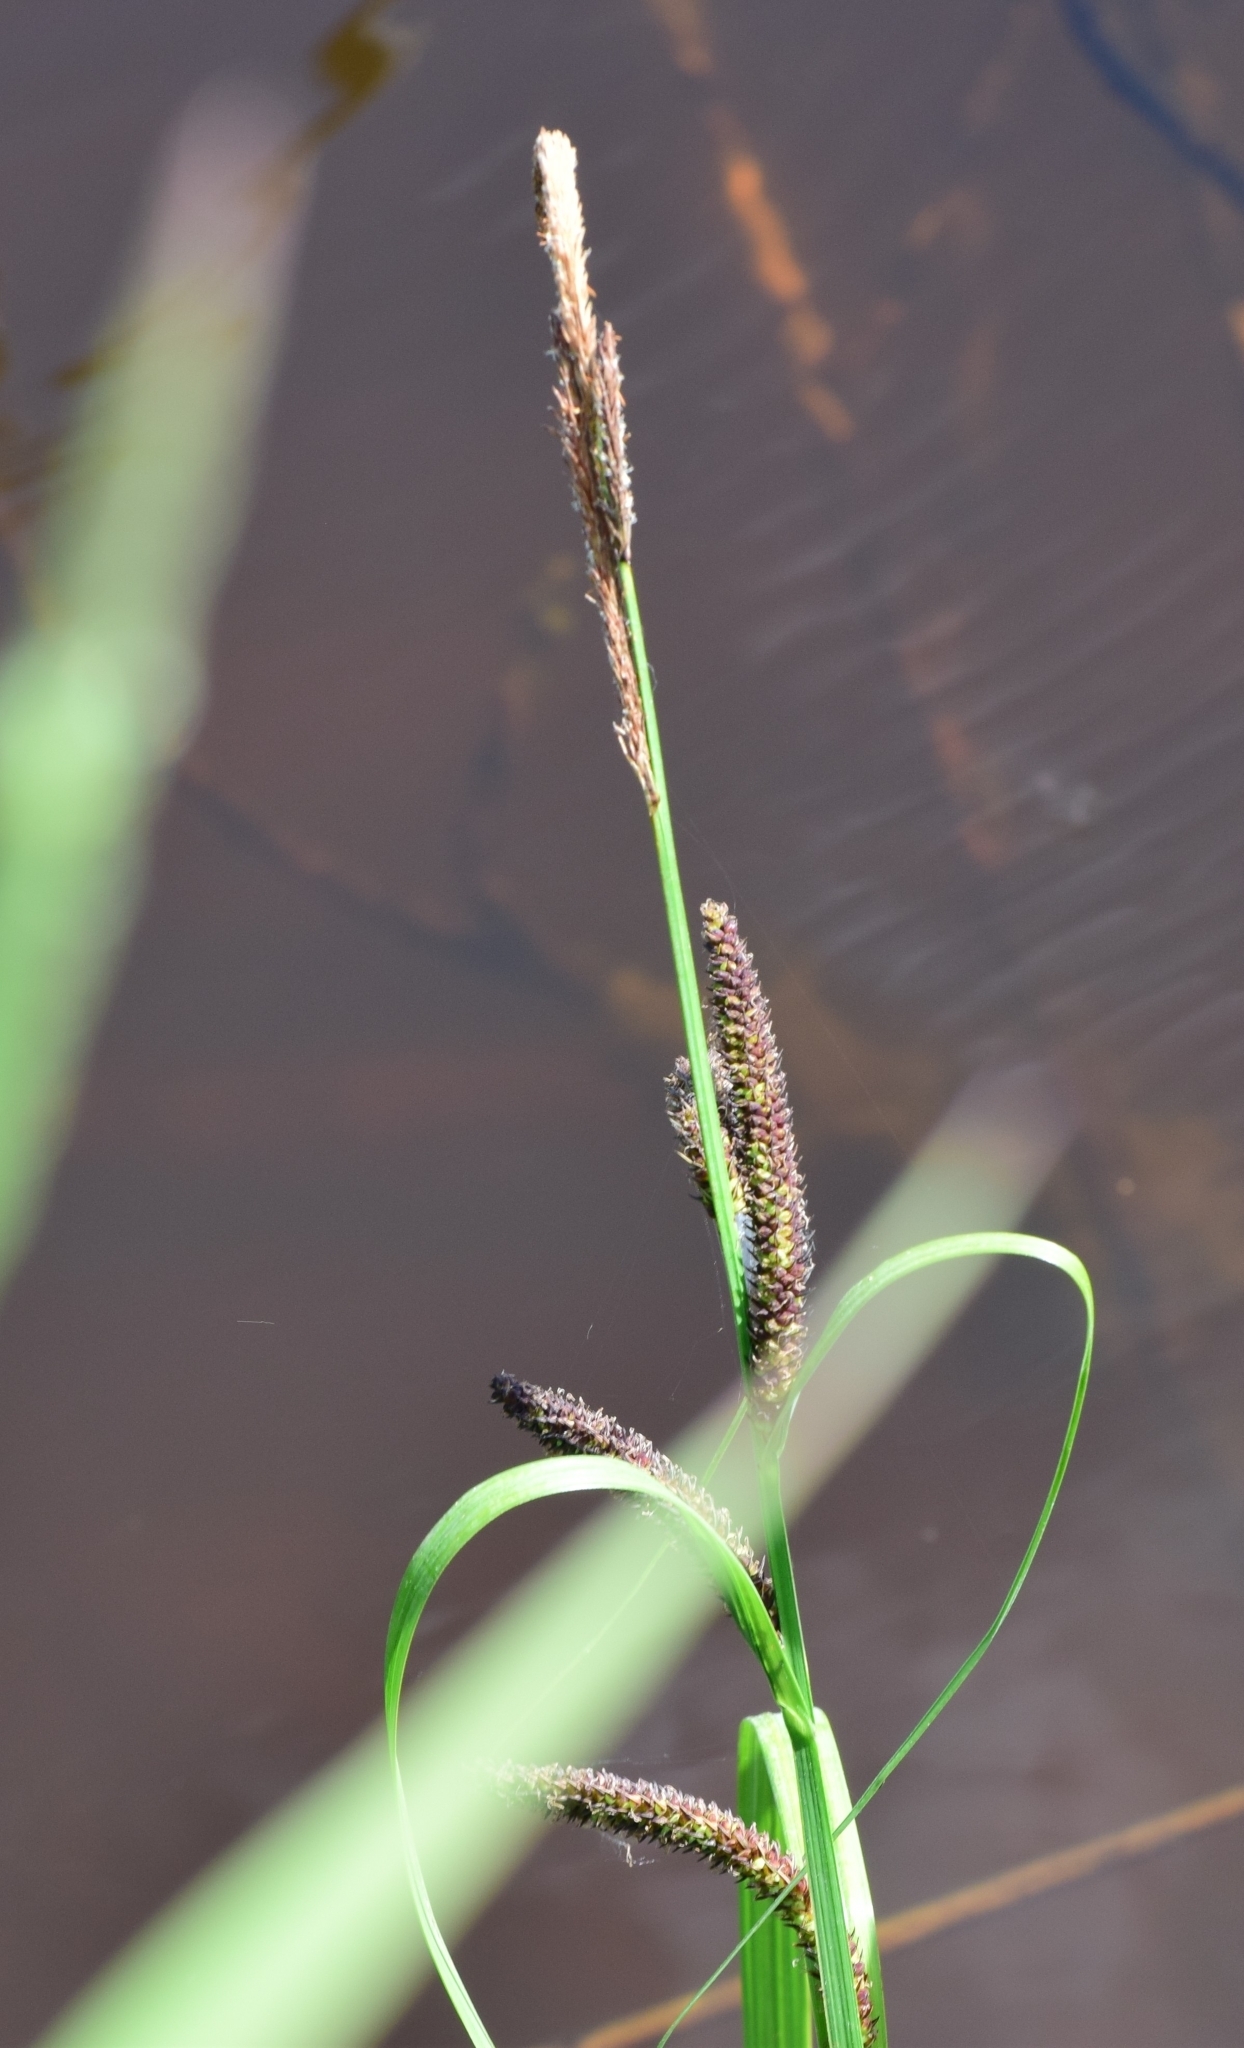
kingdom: Plantae
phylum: Tracheophyta
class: Liliopsida
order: Poales
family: Cyperaceae
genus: Carex
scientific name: Carex acuta
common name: Slender tufted-sedge
